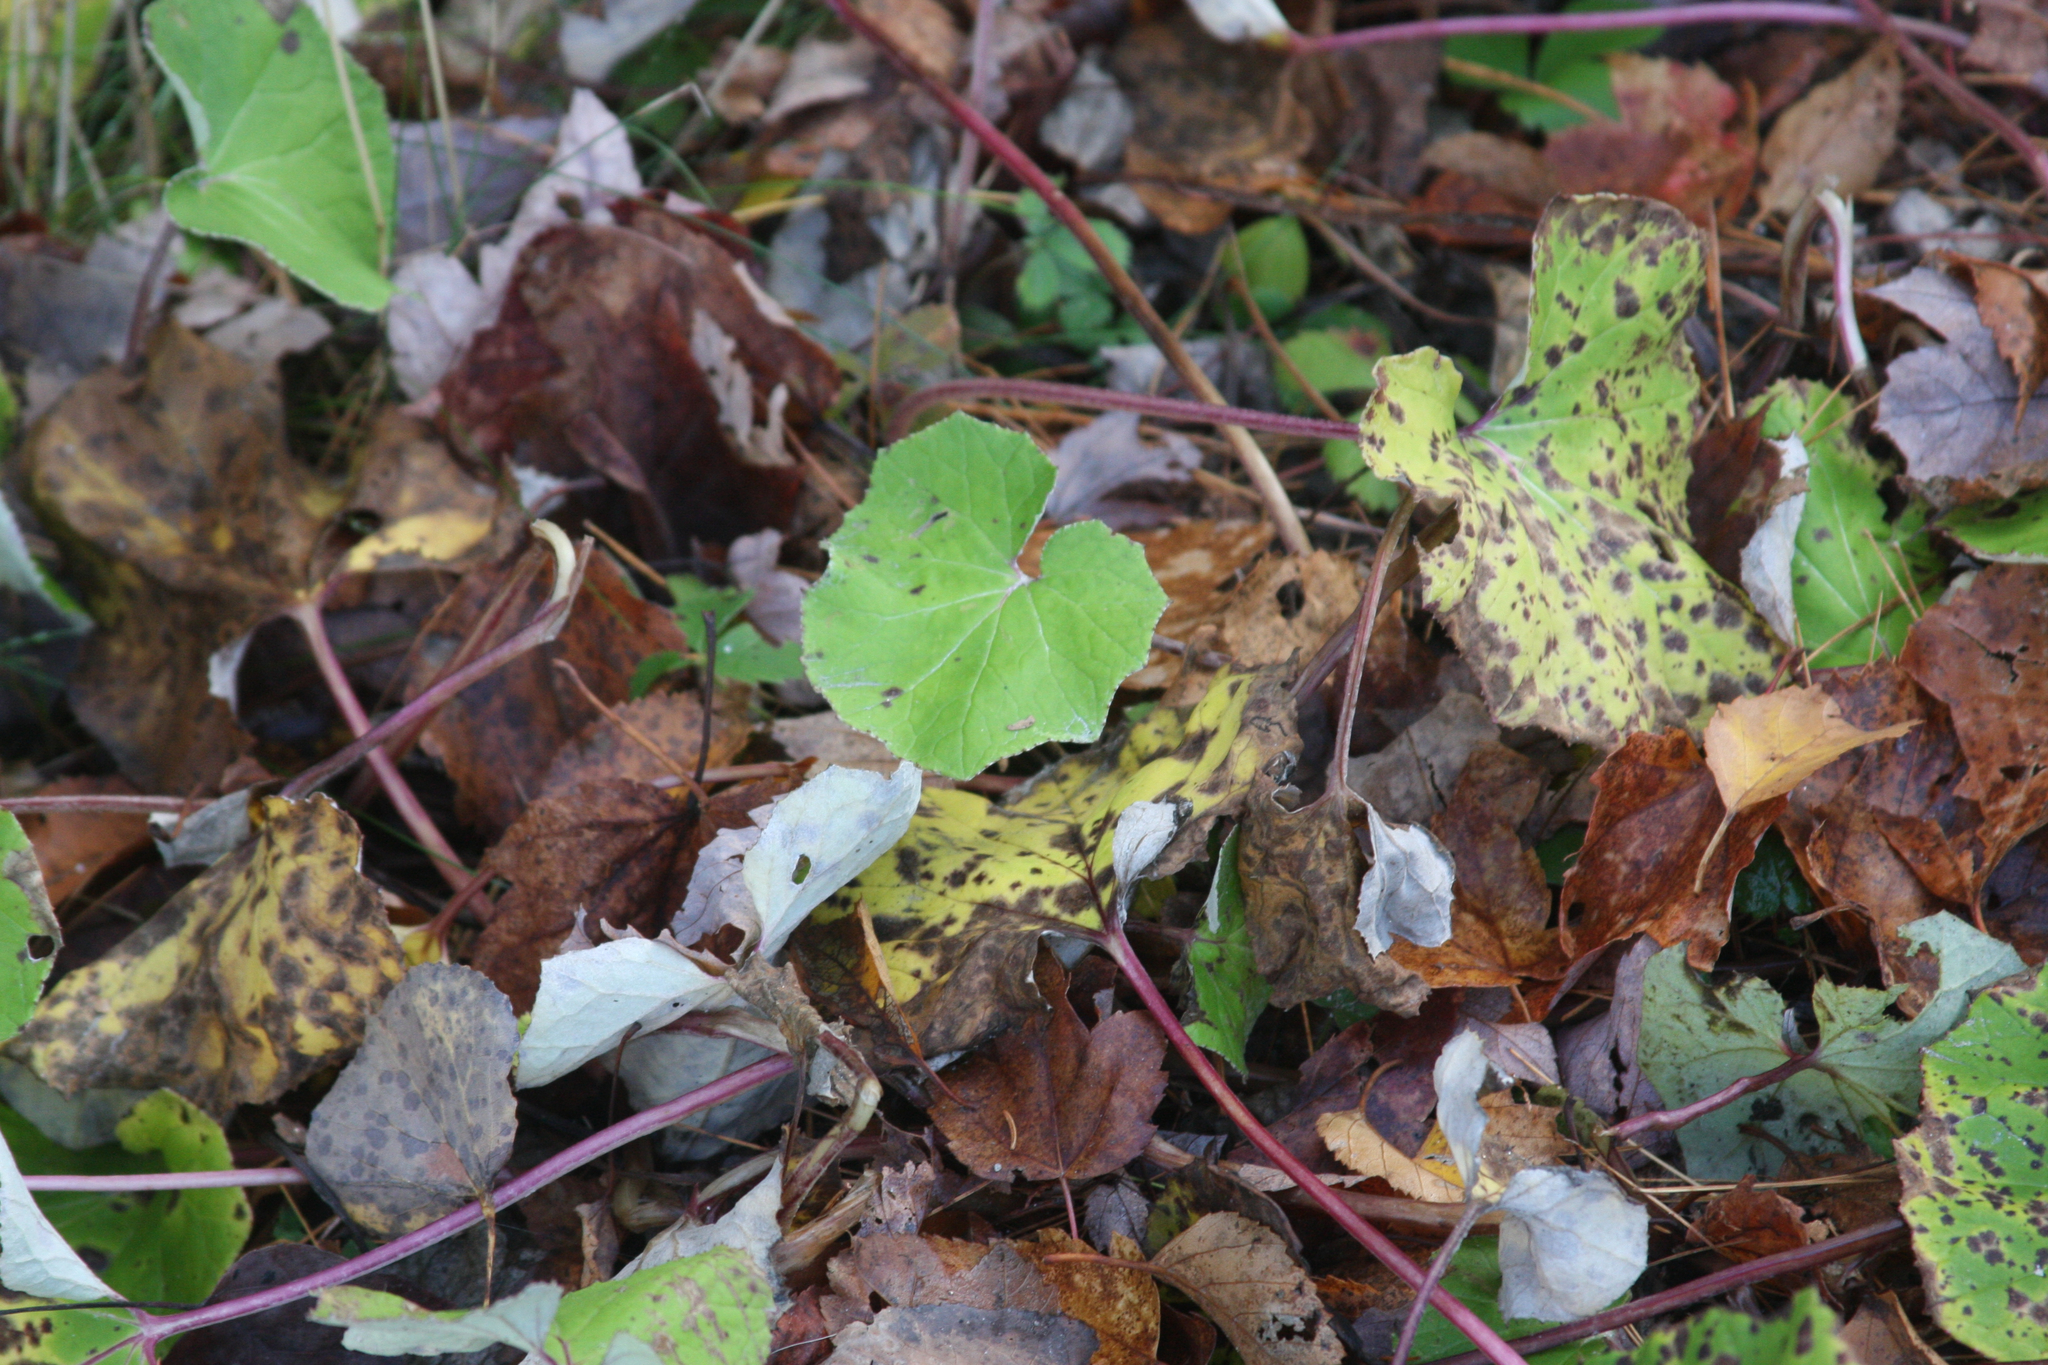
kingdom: Plantae
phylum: Tracheophyta
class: Magnoliopsida
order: Asterales
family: Asteraceae
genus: Tussilago
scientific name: Tussilago farfara
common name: Coltsfoot
